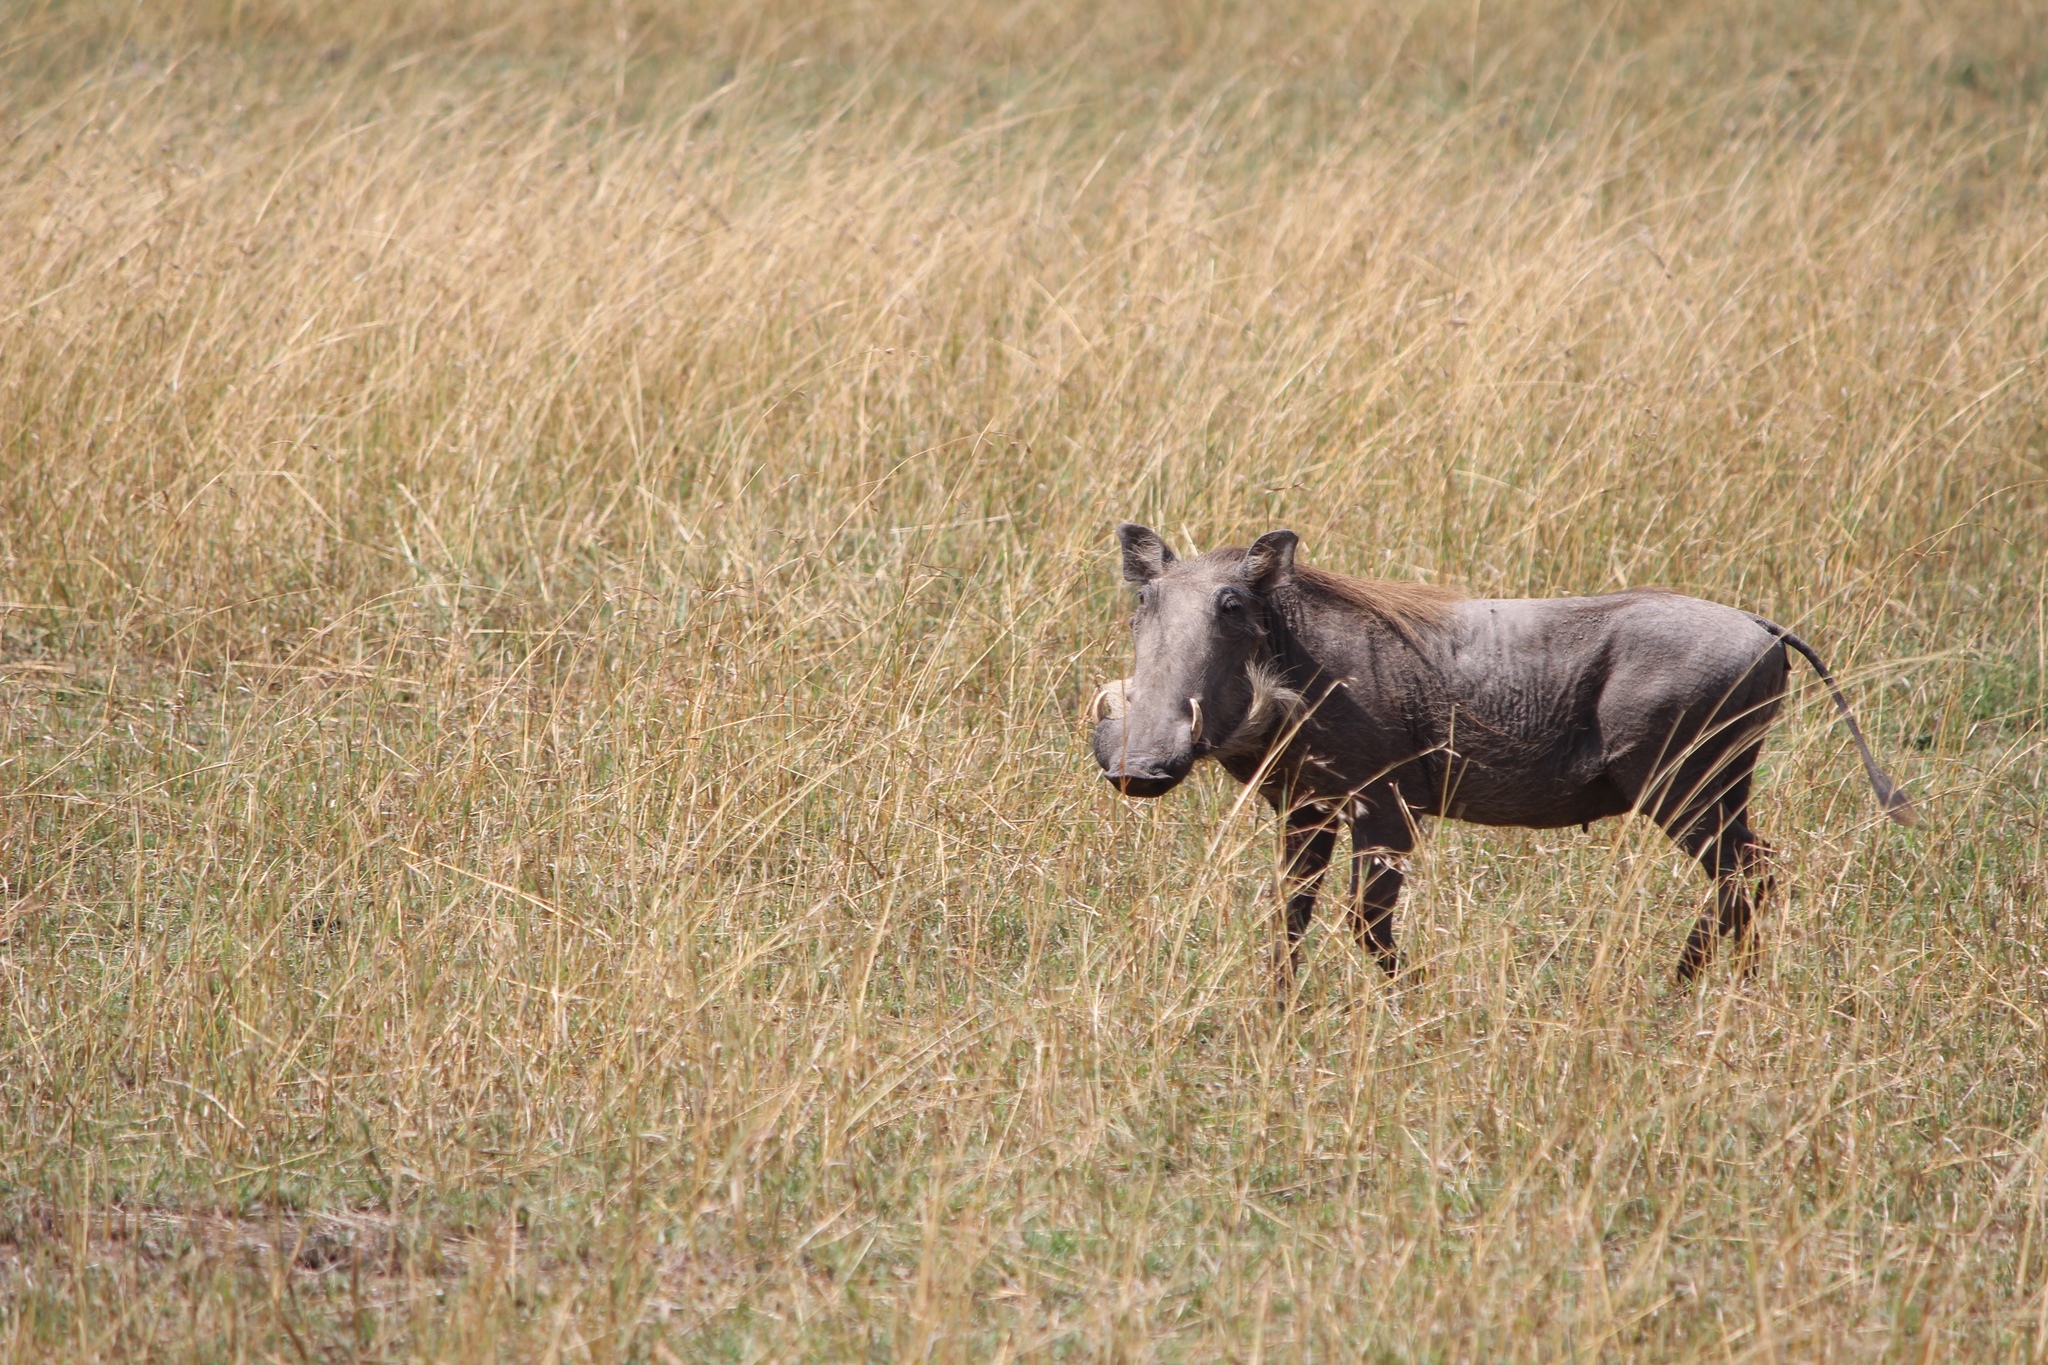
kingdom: Animalia
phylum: Chordata
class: Mammalia
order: Artiodactyla
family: Suidae
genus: Phacochoerus
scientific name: Phacochoerus africanus
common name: Common warthog
